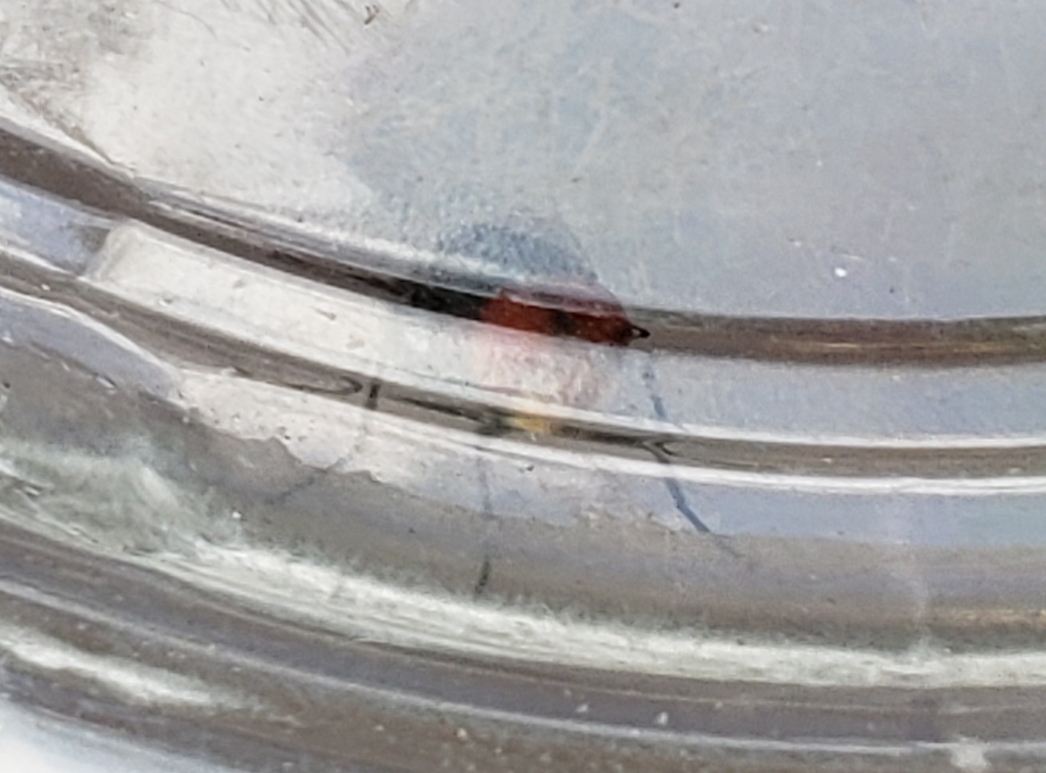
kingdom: Animalia
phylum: Arthropoda
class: Insecta
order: Diptera
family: Calliphoridae
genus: Chrysomya
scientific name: Chrysomya megacephala
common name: Blow fly
